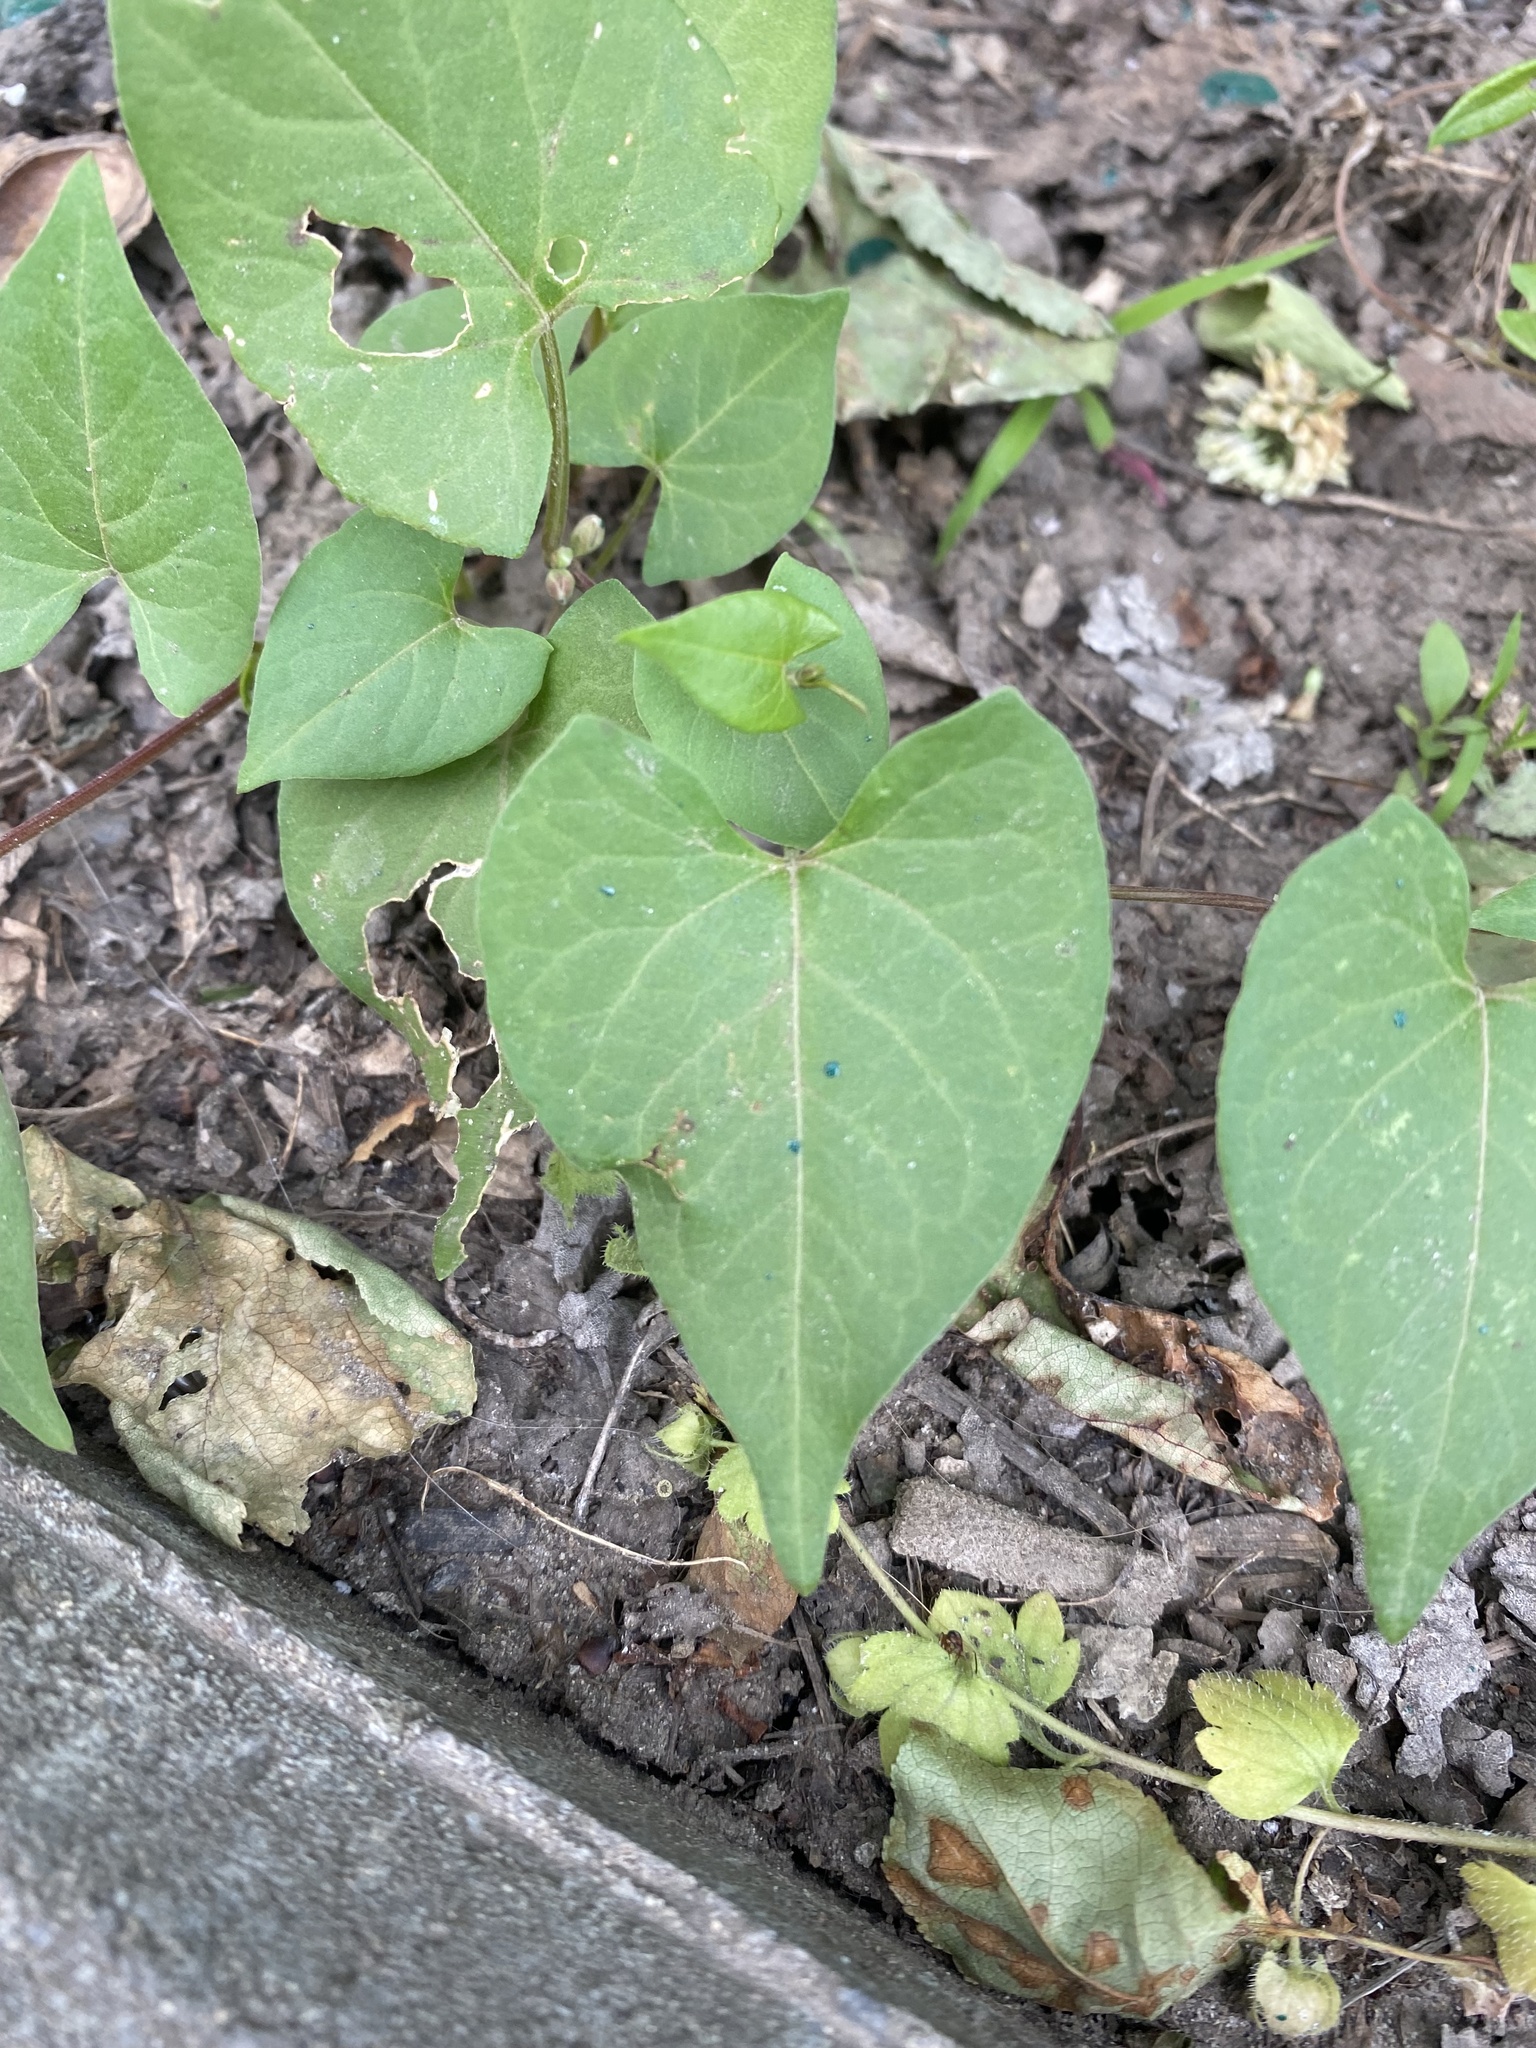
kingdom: Plantae
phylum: Tracheophyta
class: Magnoliopsida
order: Caryophyllales
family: Polygonaceae
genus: Fallopia
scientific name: Fallopia convolvulus
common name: Black bindweed
